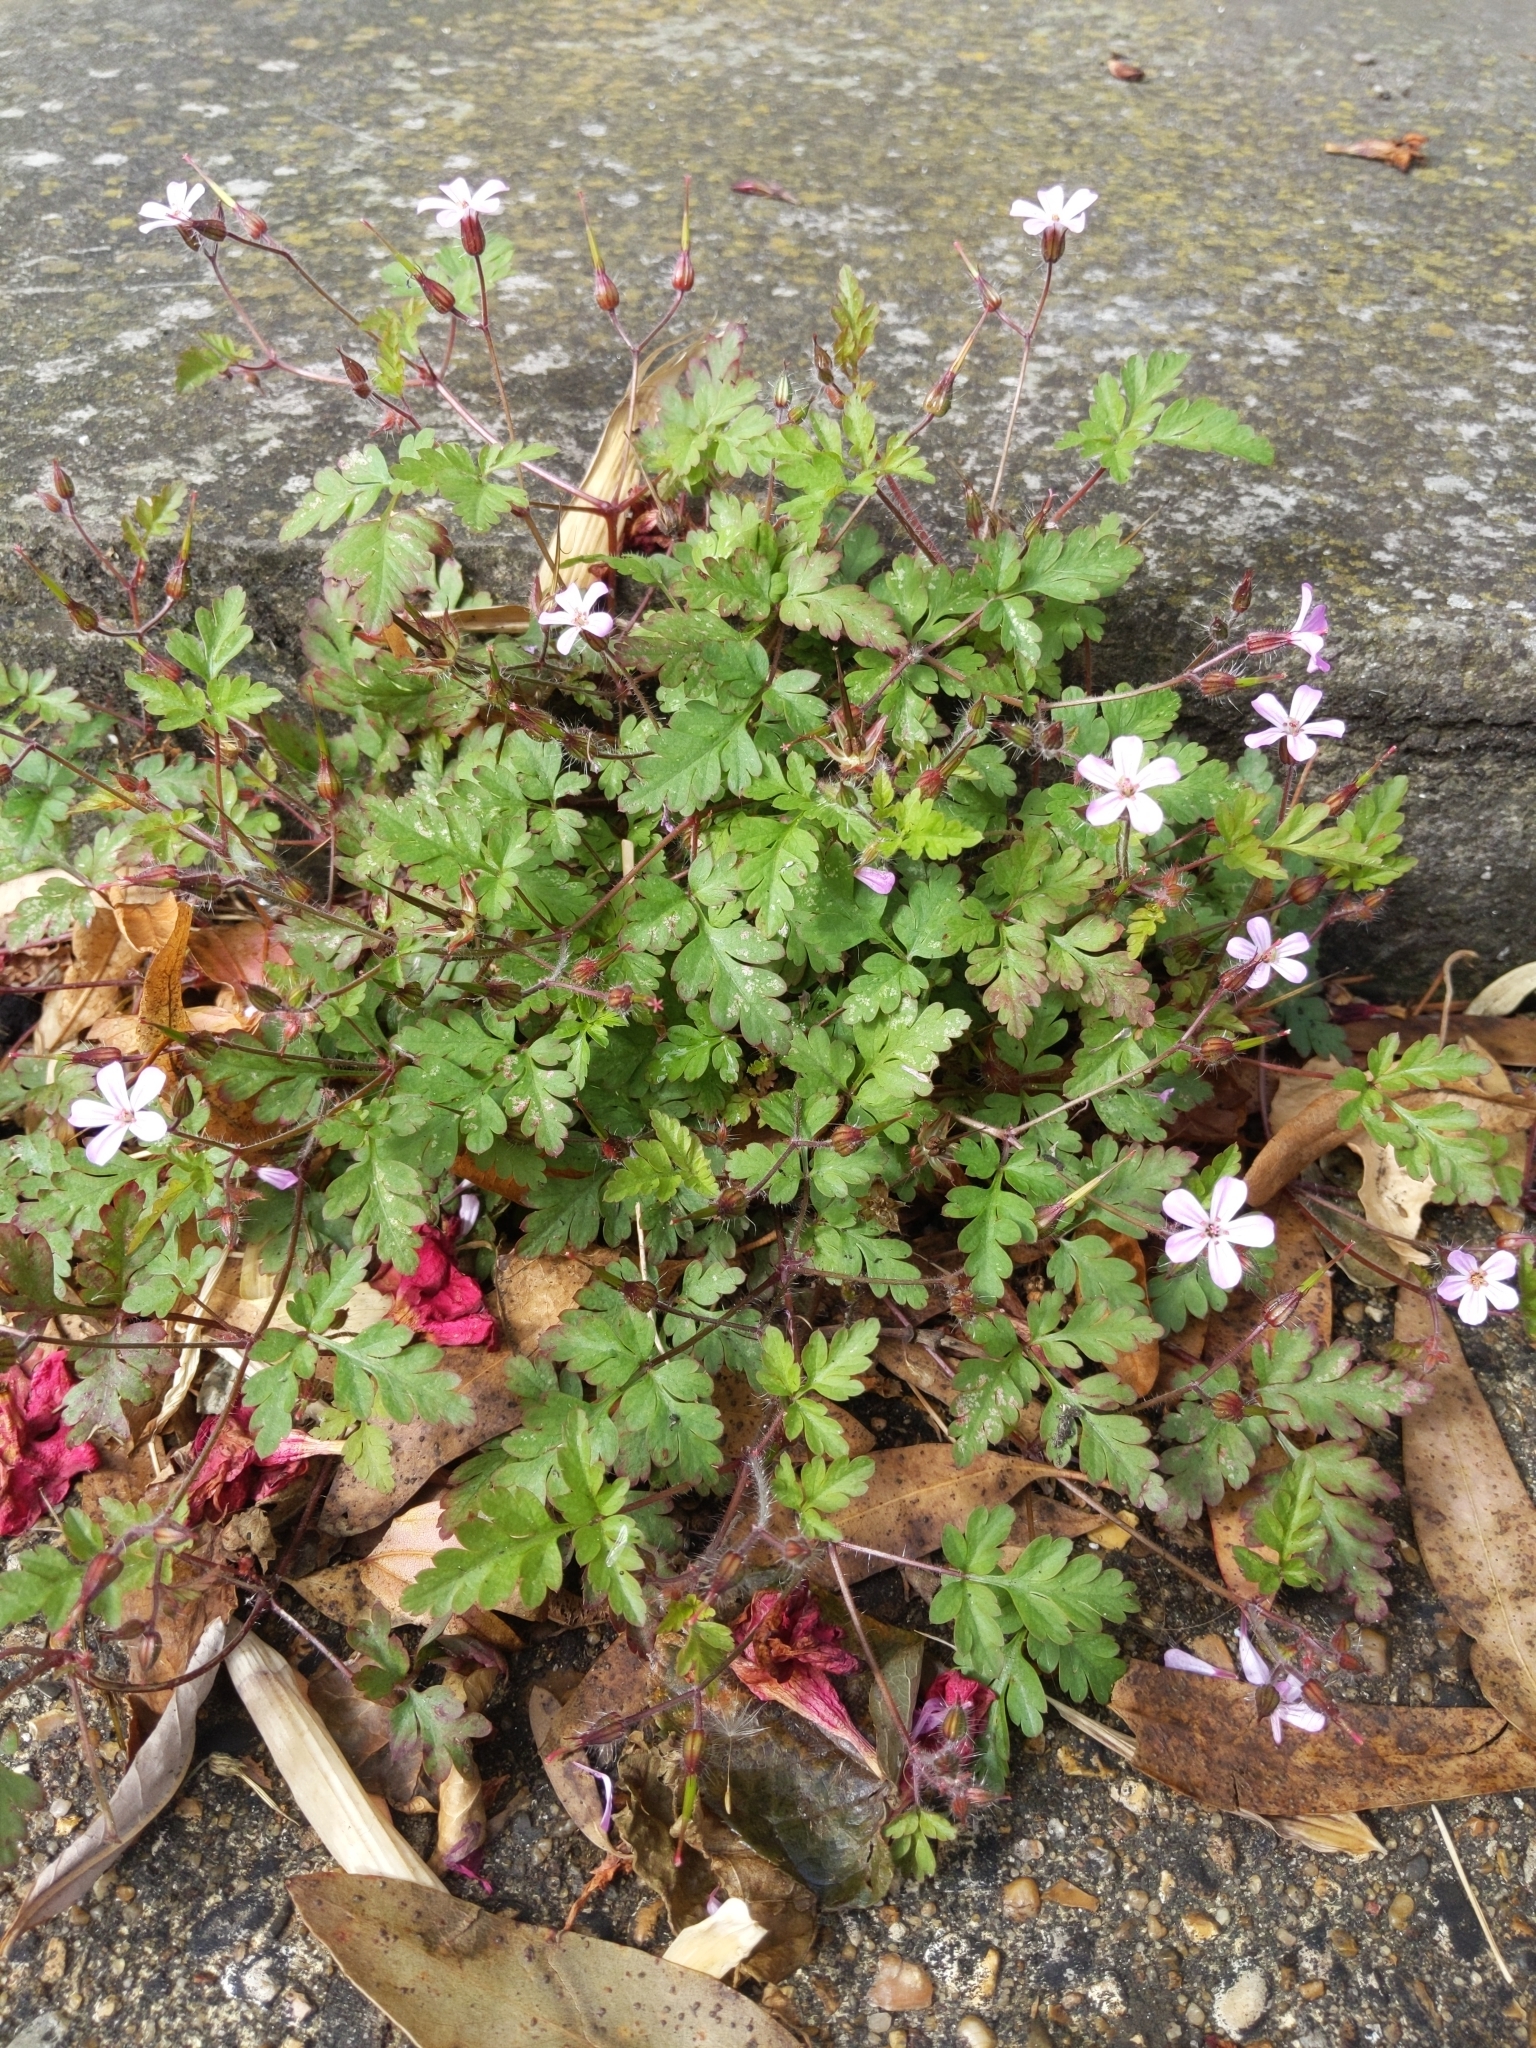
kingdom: Plantae
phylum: Tracheophyta
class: Magnoliopsida
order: Geraniales
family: Geraniaceae
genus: Geranium
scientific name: Geranium robertianum
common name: Herb-robert
